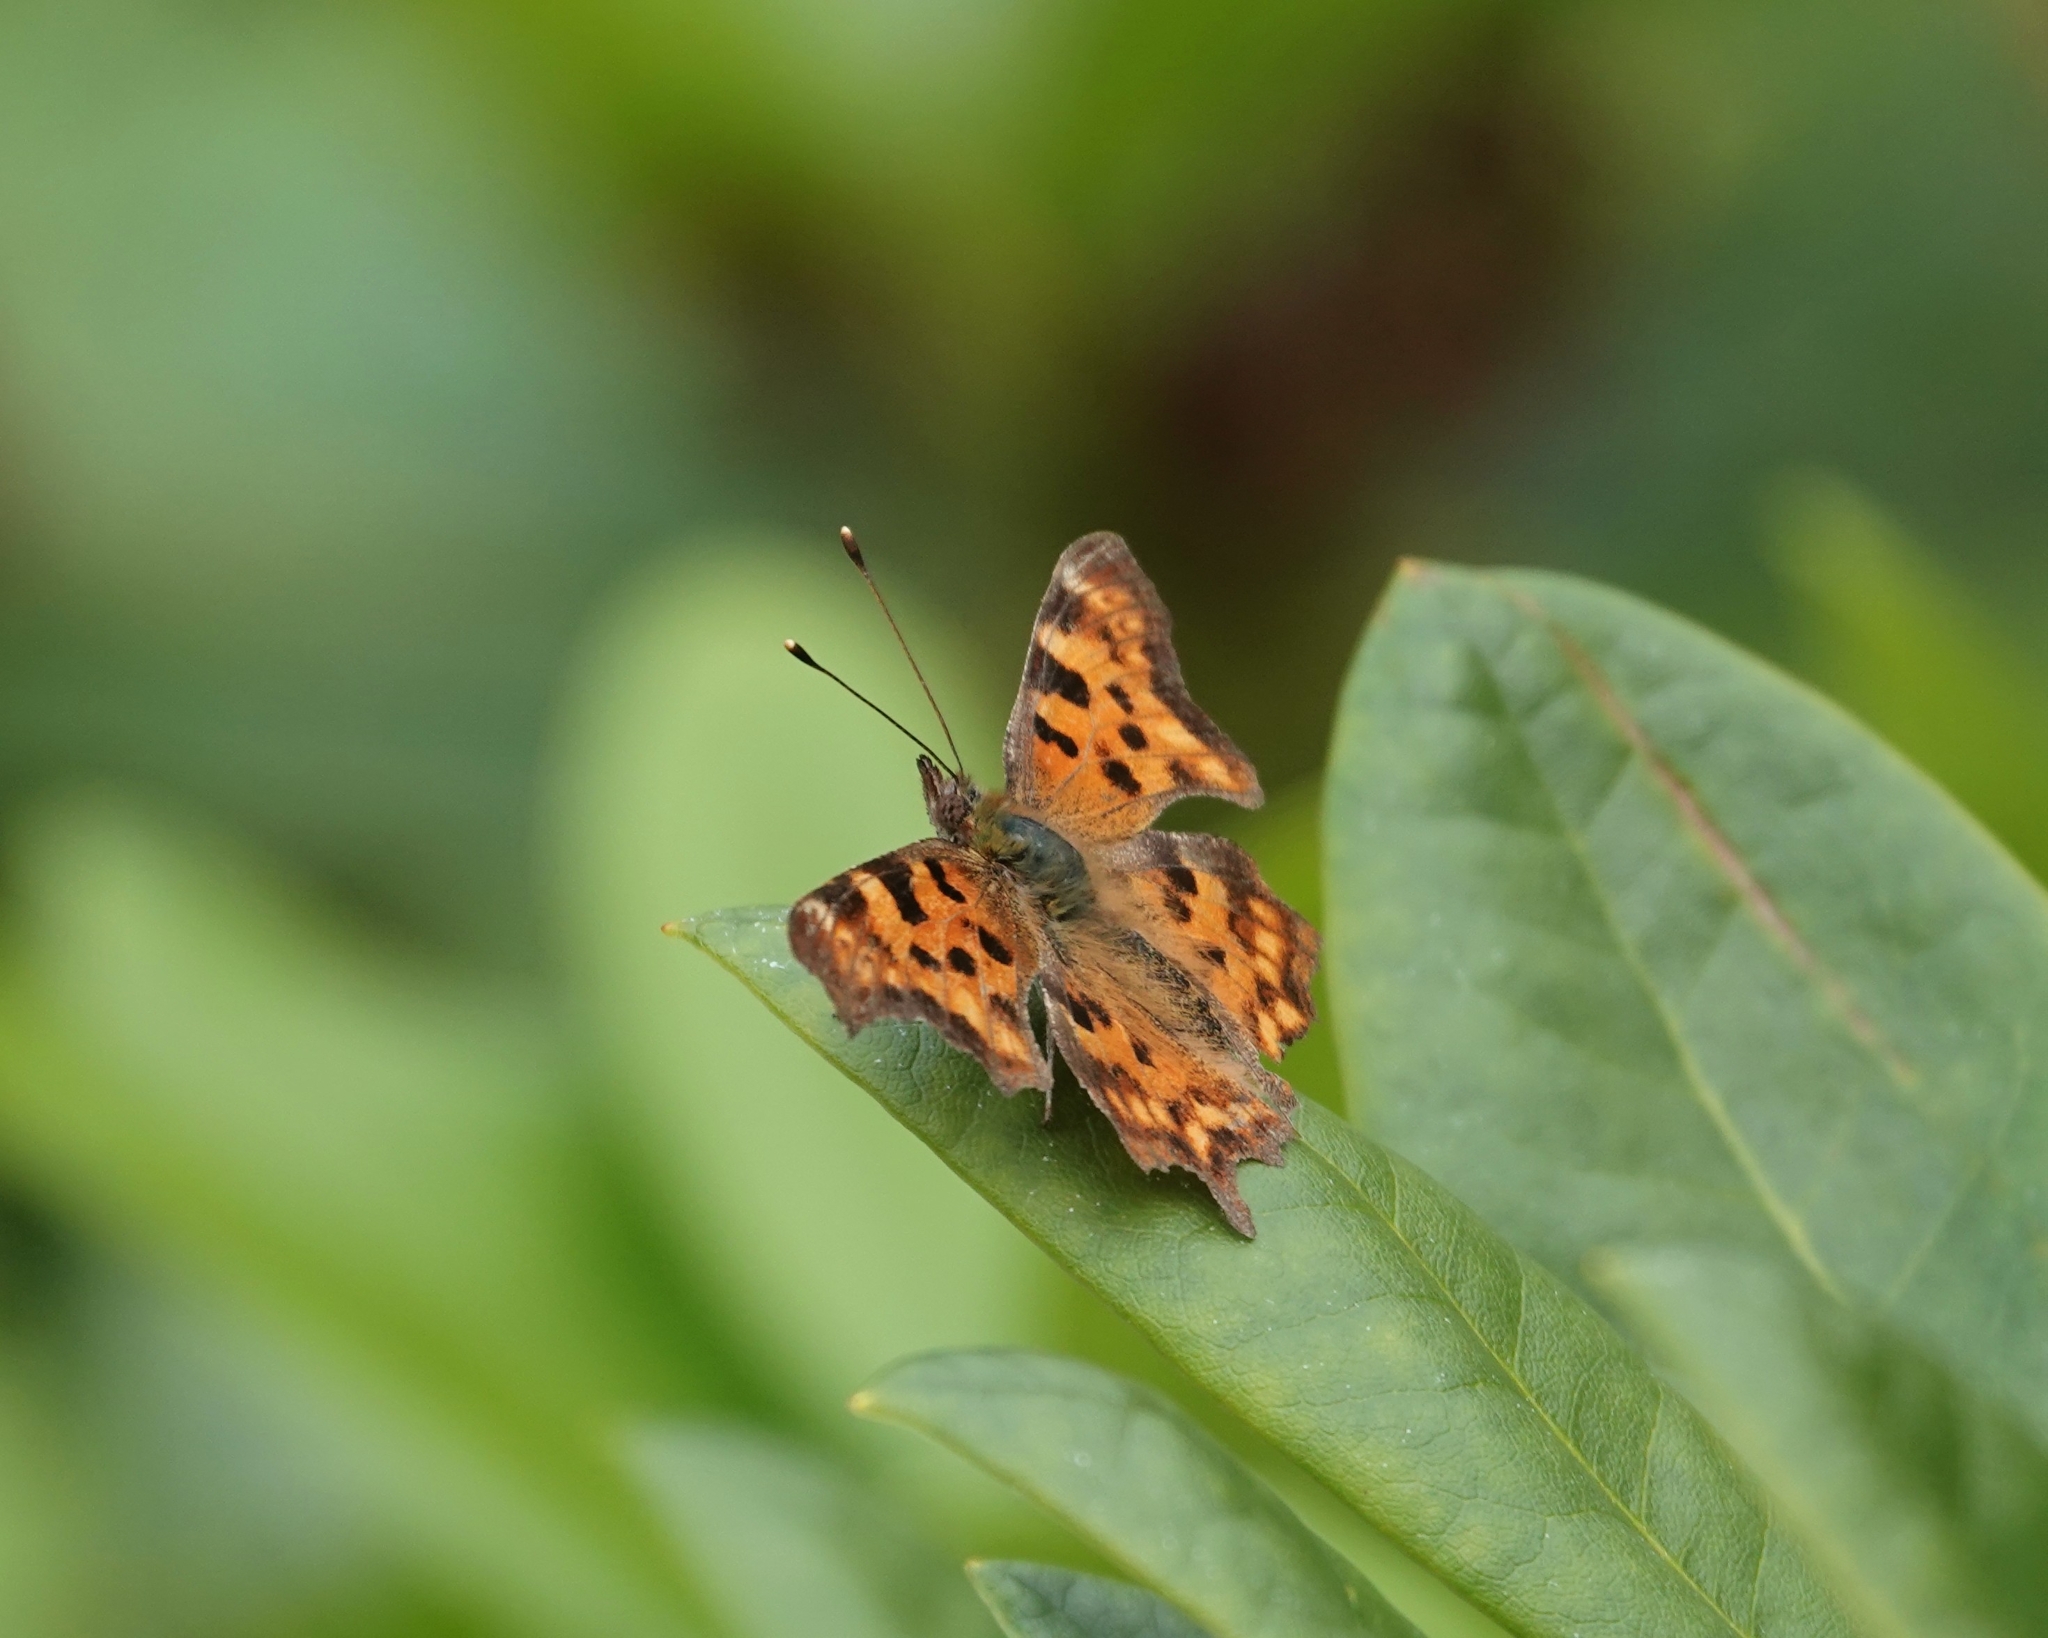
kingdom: Animalia
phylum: Arthropoda
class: Insecta
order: Lepidoptera
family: Nymphalidae
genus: Polygonia
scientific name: Polygonia c-album
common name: Comma
